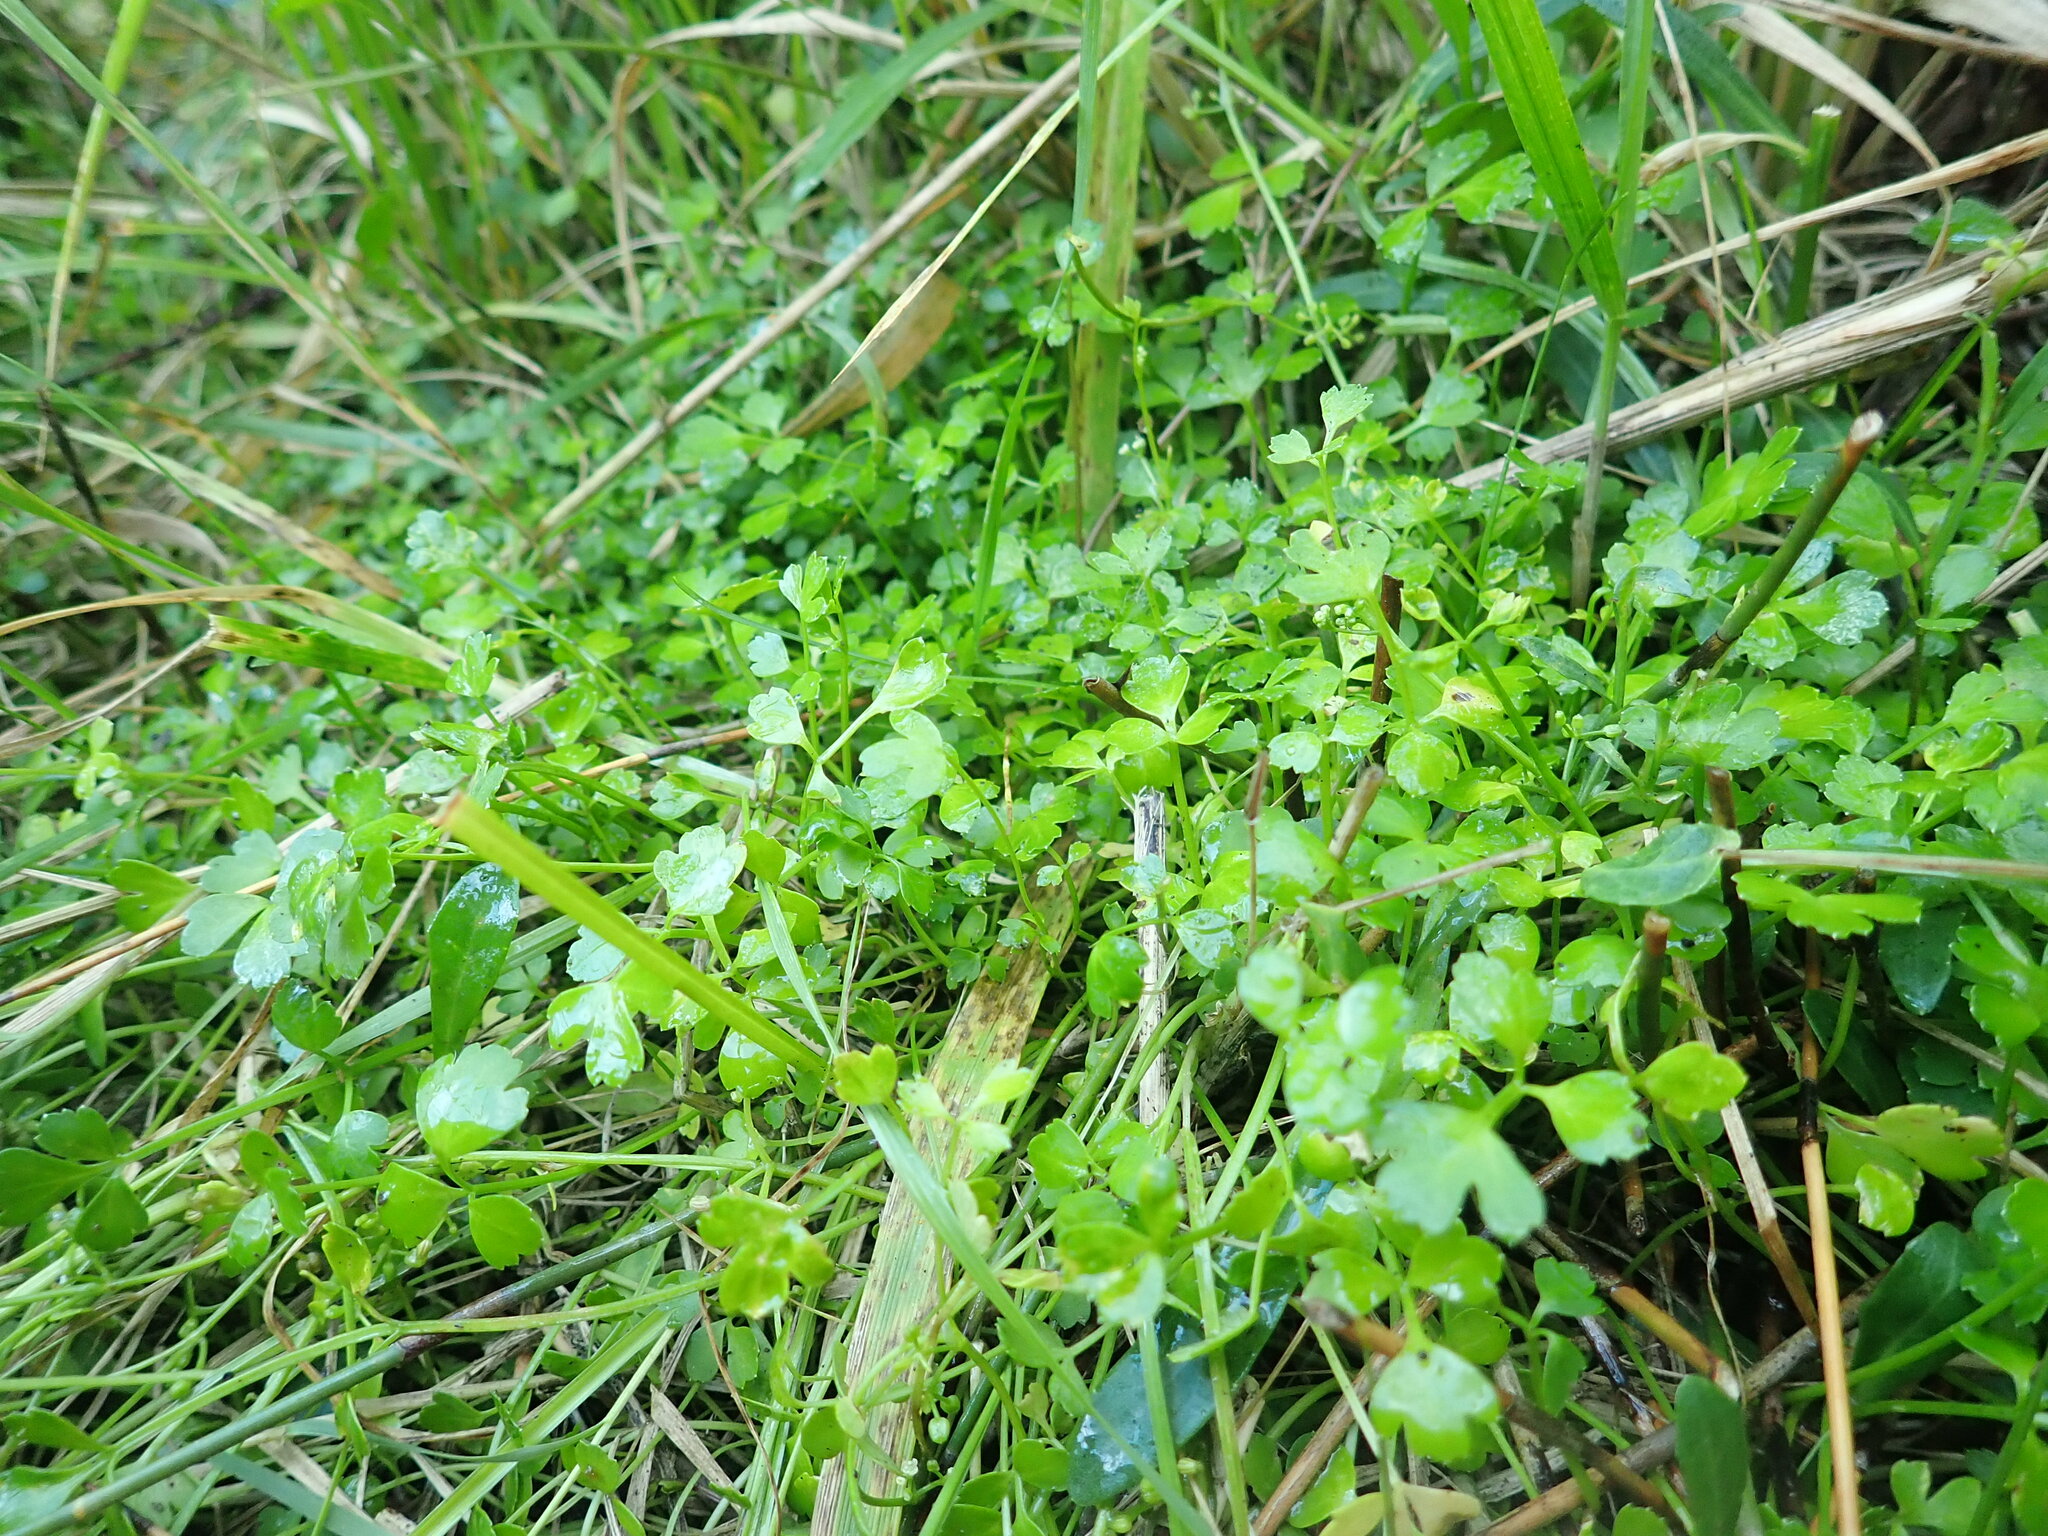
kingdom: Plantae
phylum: Tracheophyta
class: Magnoliopsida
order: Apiales
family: Apiaceae
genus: Apium
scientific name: Apium prostratum
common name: Prostrate marshwort
